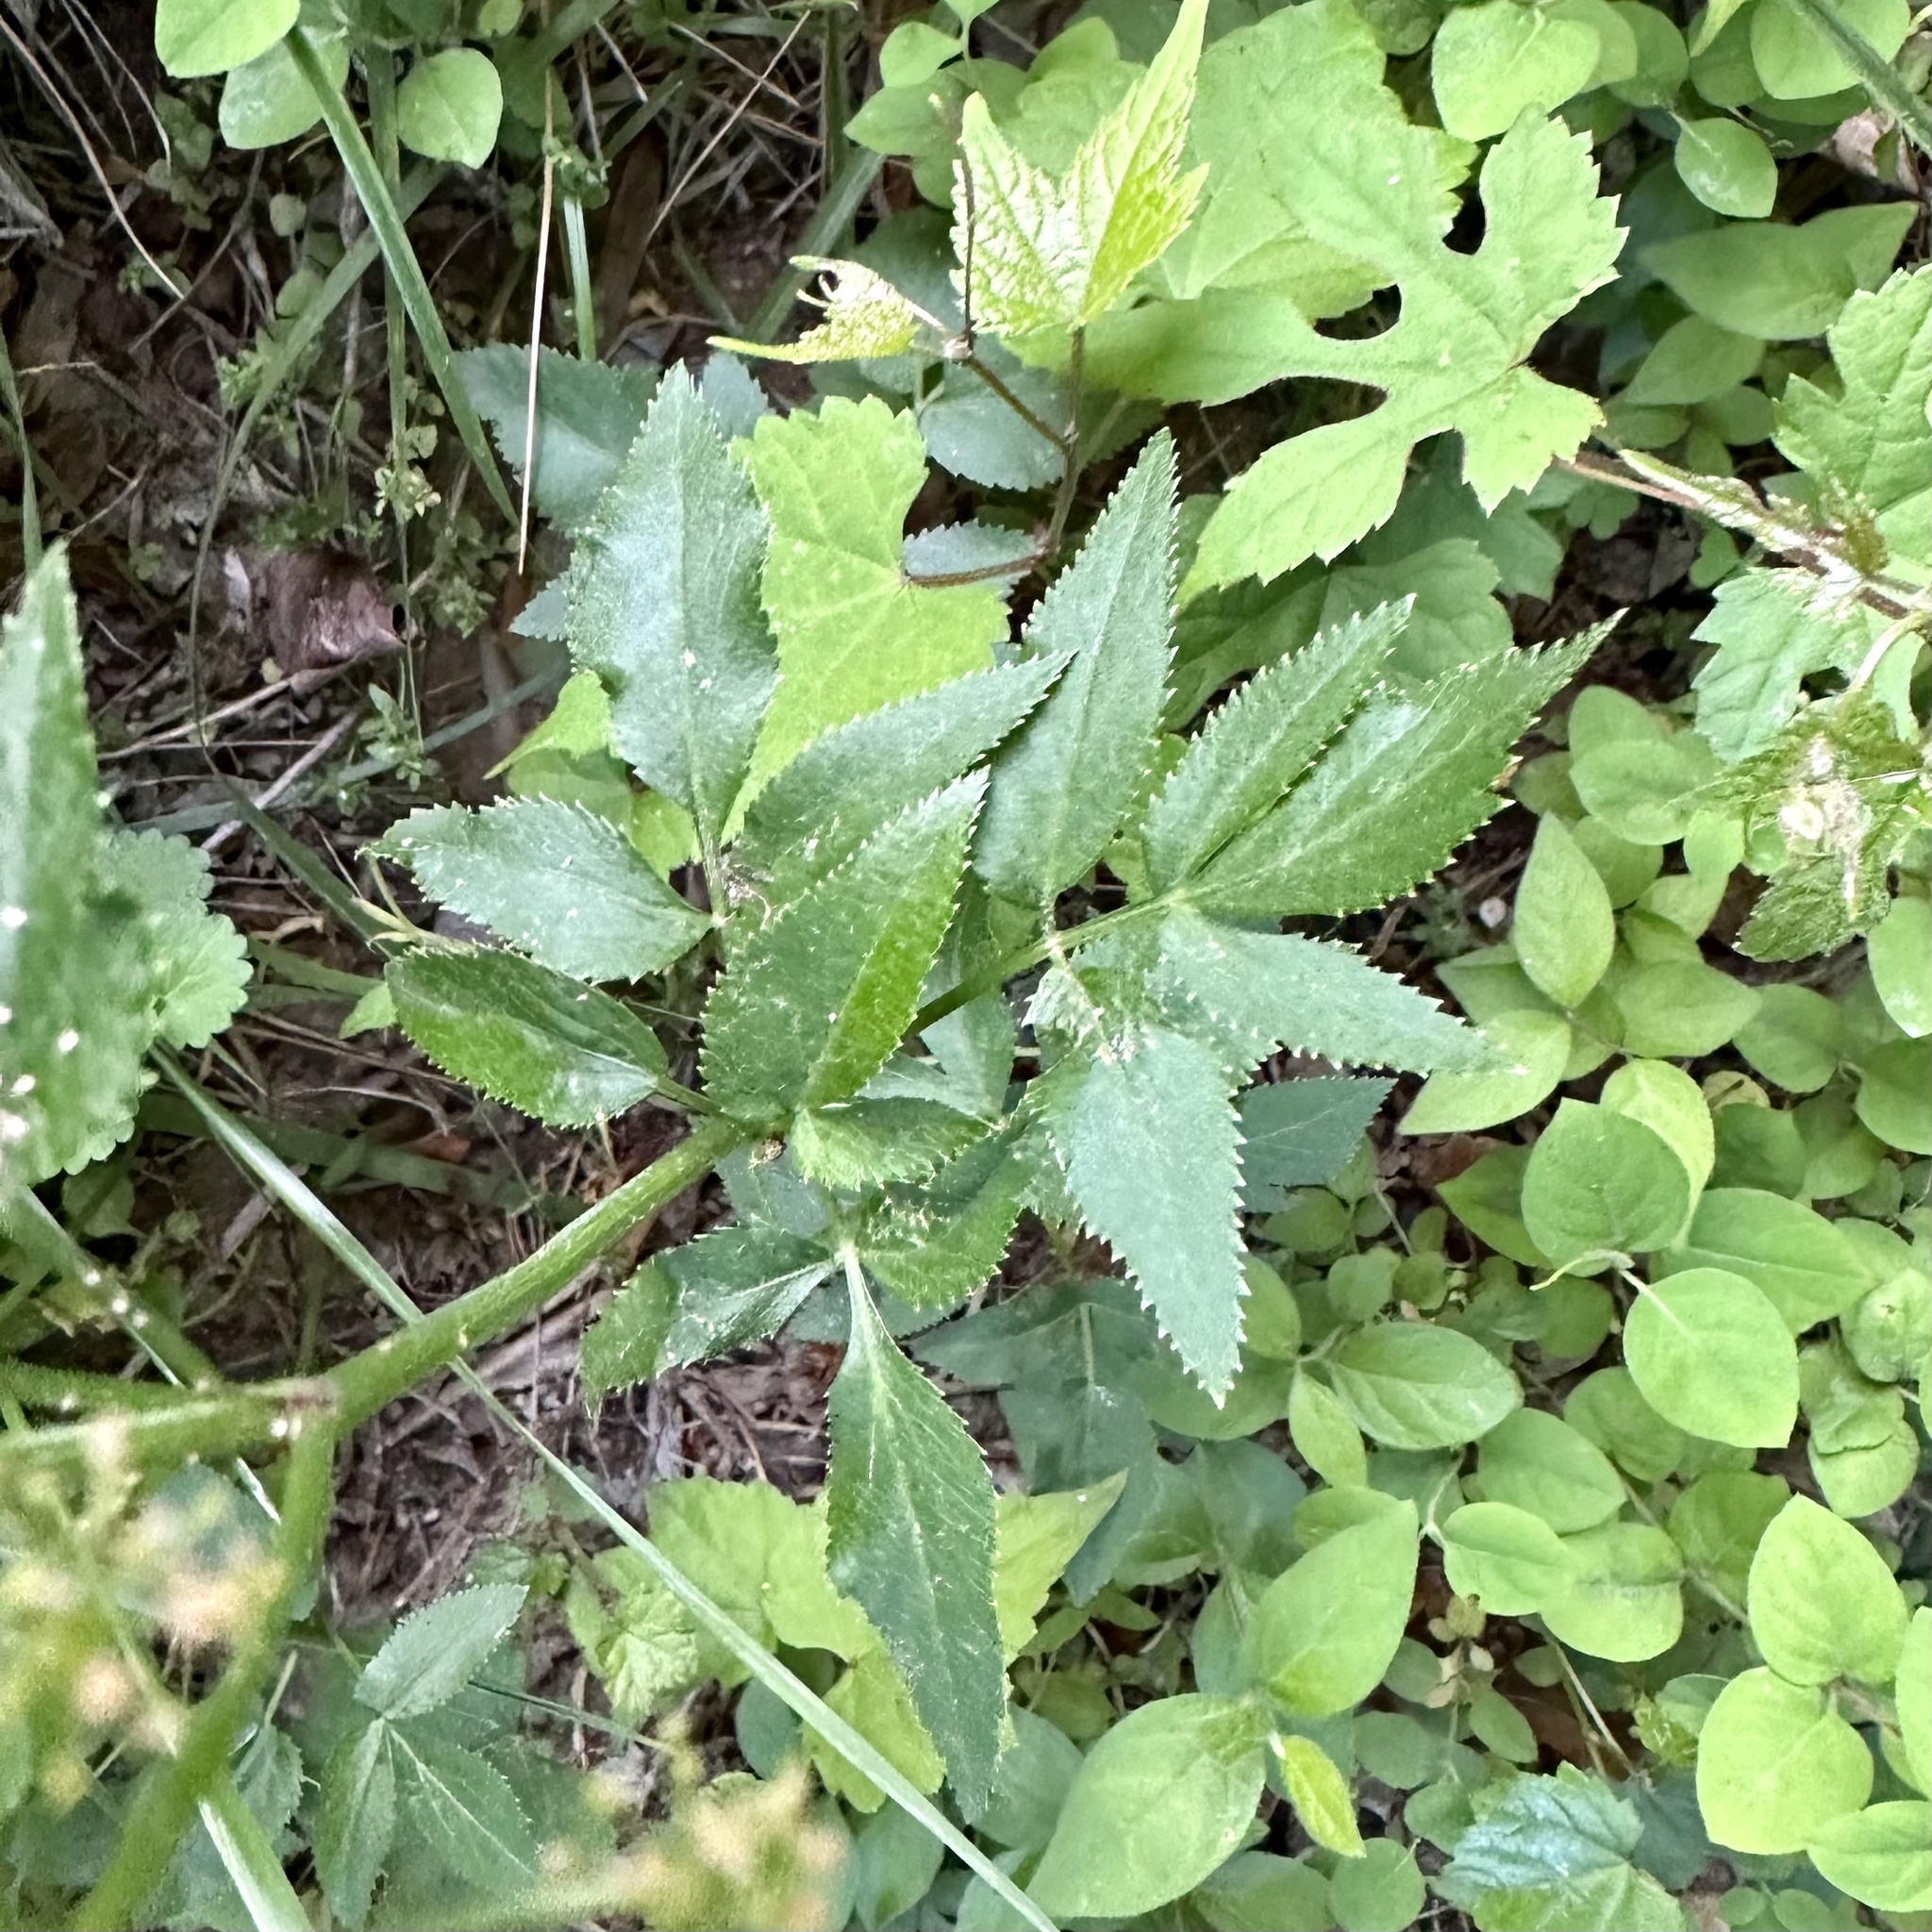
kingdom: Plantae
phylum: Tracheophyta
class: Magnoliopsida
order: Apiales
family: Apiaceae
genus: Zizia
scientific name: Zizia aurea
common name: Golden alexanders
